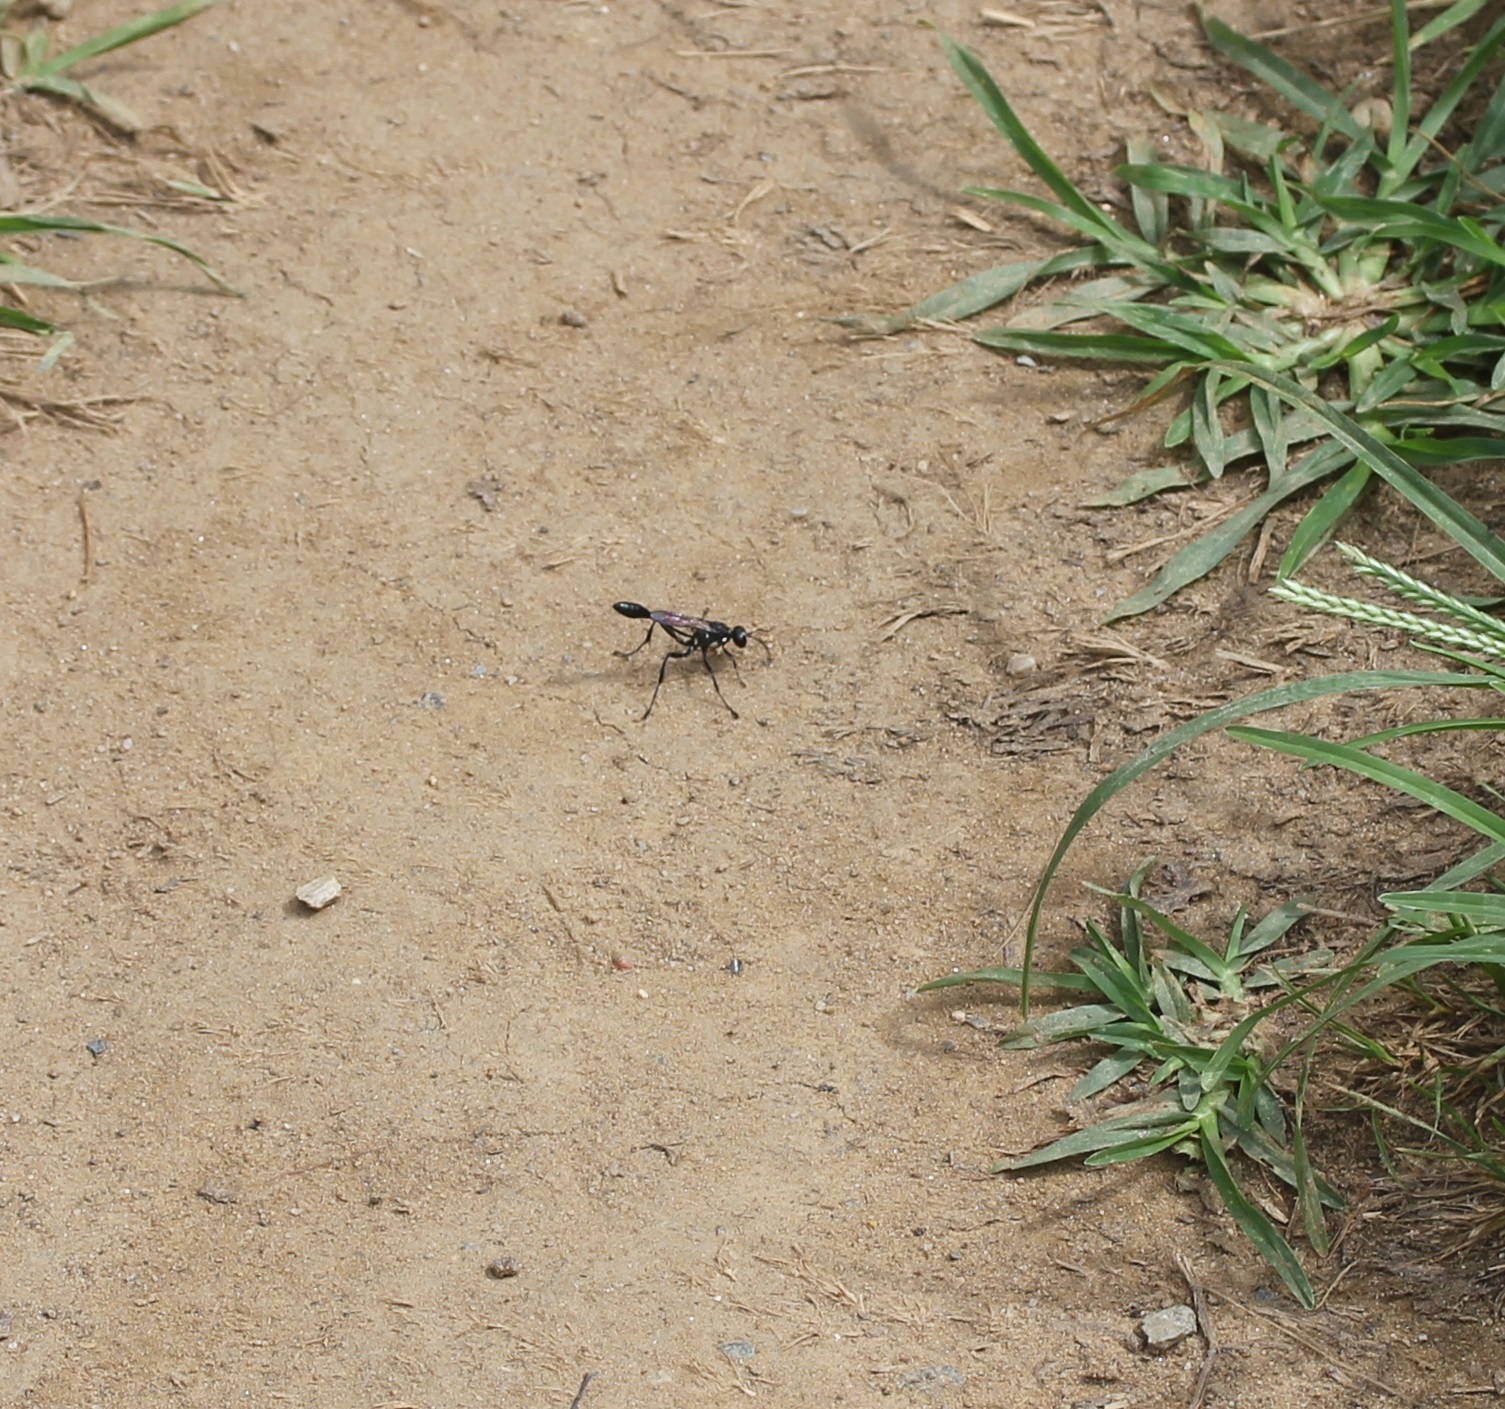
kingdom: Animalia
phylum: Arthropoda
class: Insecta
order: Hymenoptera
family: Sphecidae
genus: Eremnophila
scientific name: Eremnophila aureonotata
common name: Gold-marked thread-waisted wasp
